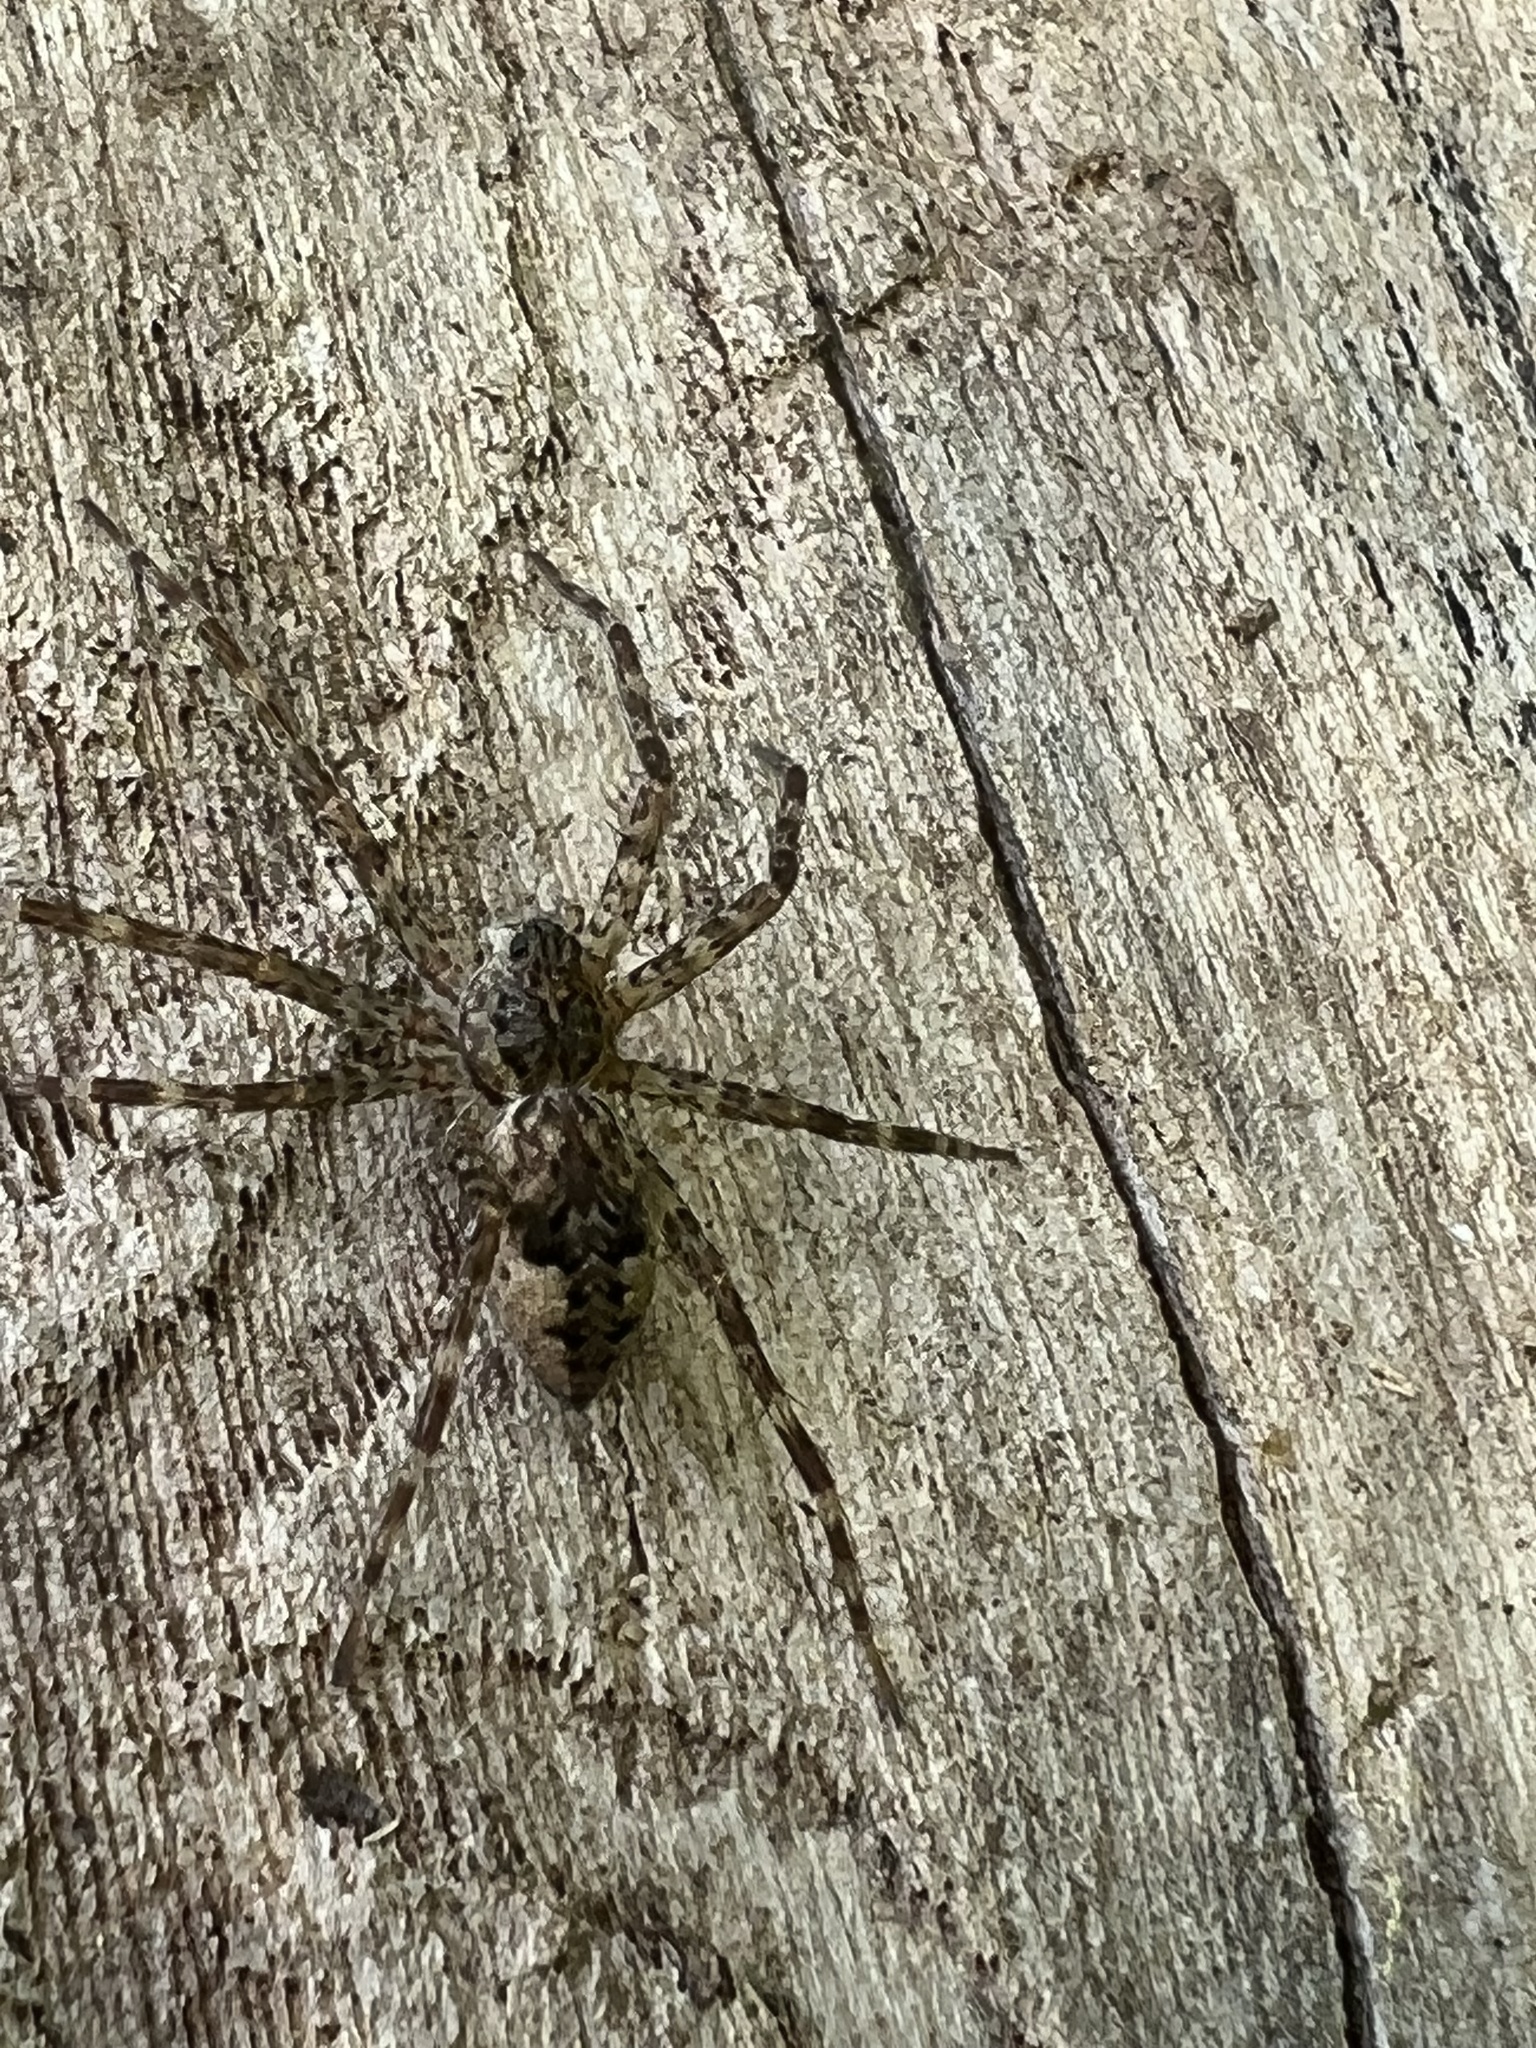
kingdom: Animalia
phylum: Arthropoda
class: Arachnida
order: Araneae
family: Pisauridae
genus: Dolomedes
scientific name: Dolomedes tenebrosus
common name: Dark fishing spider
